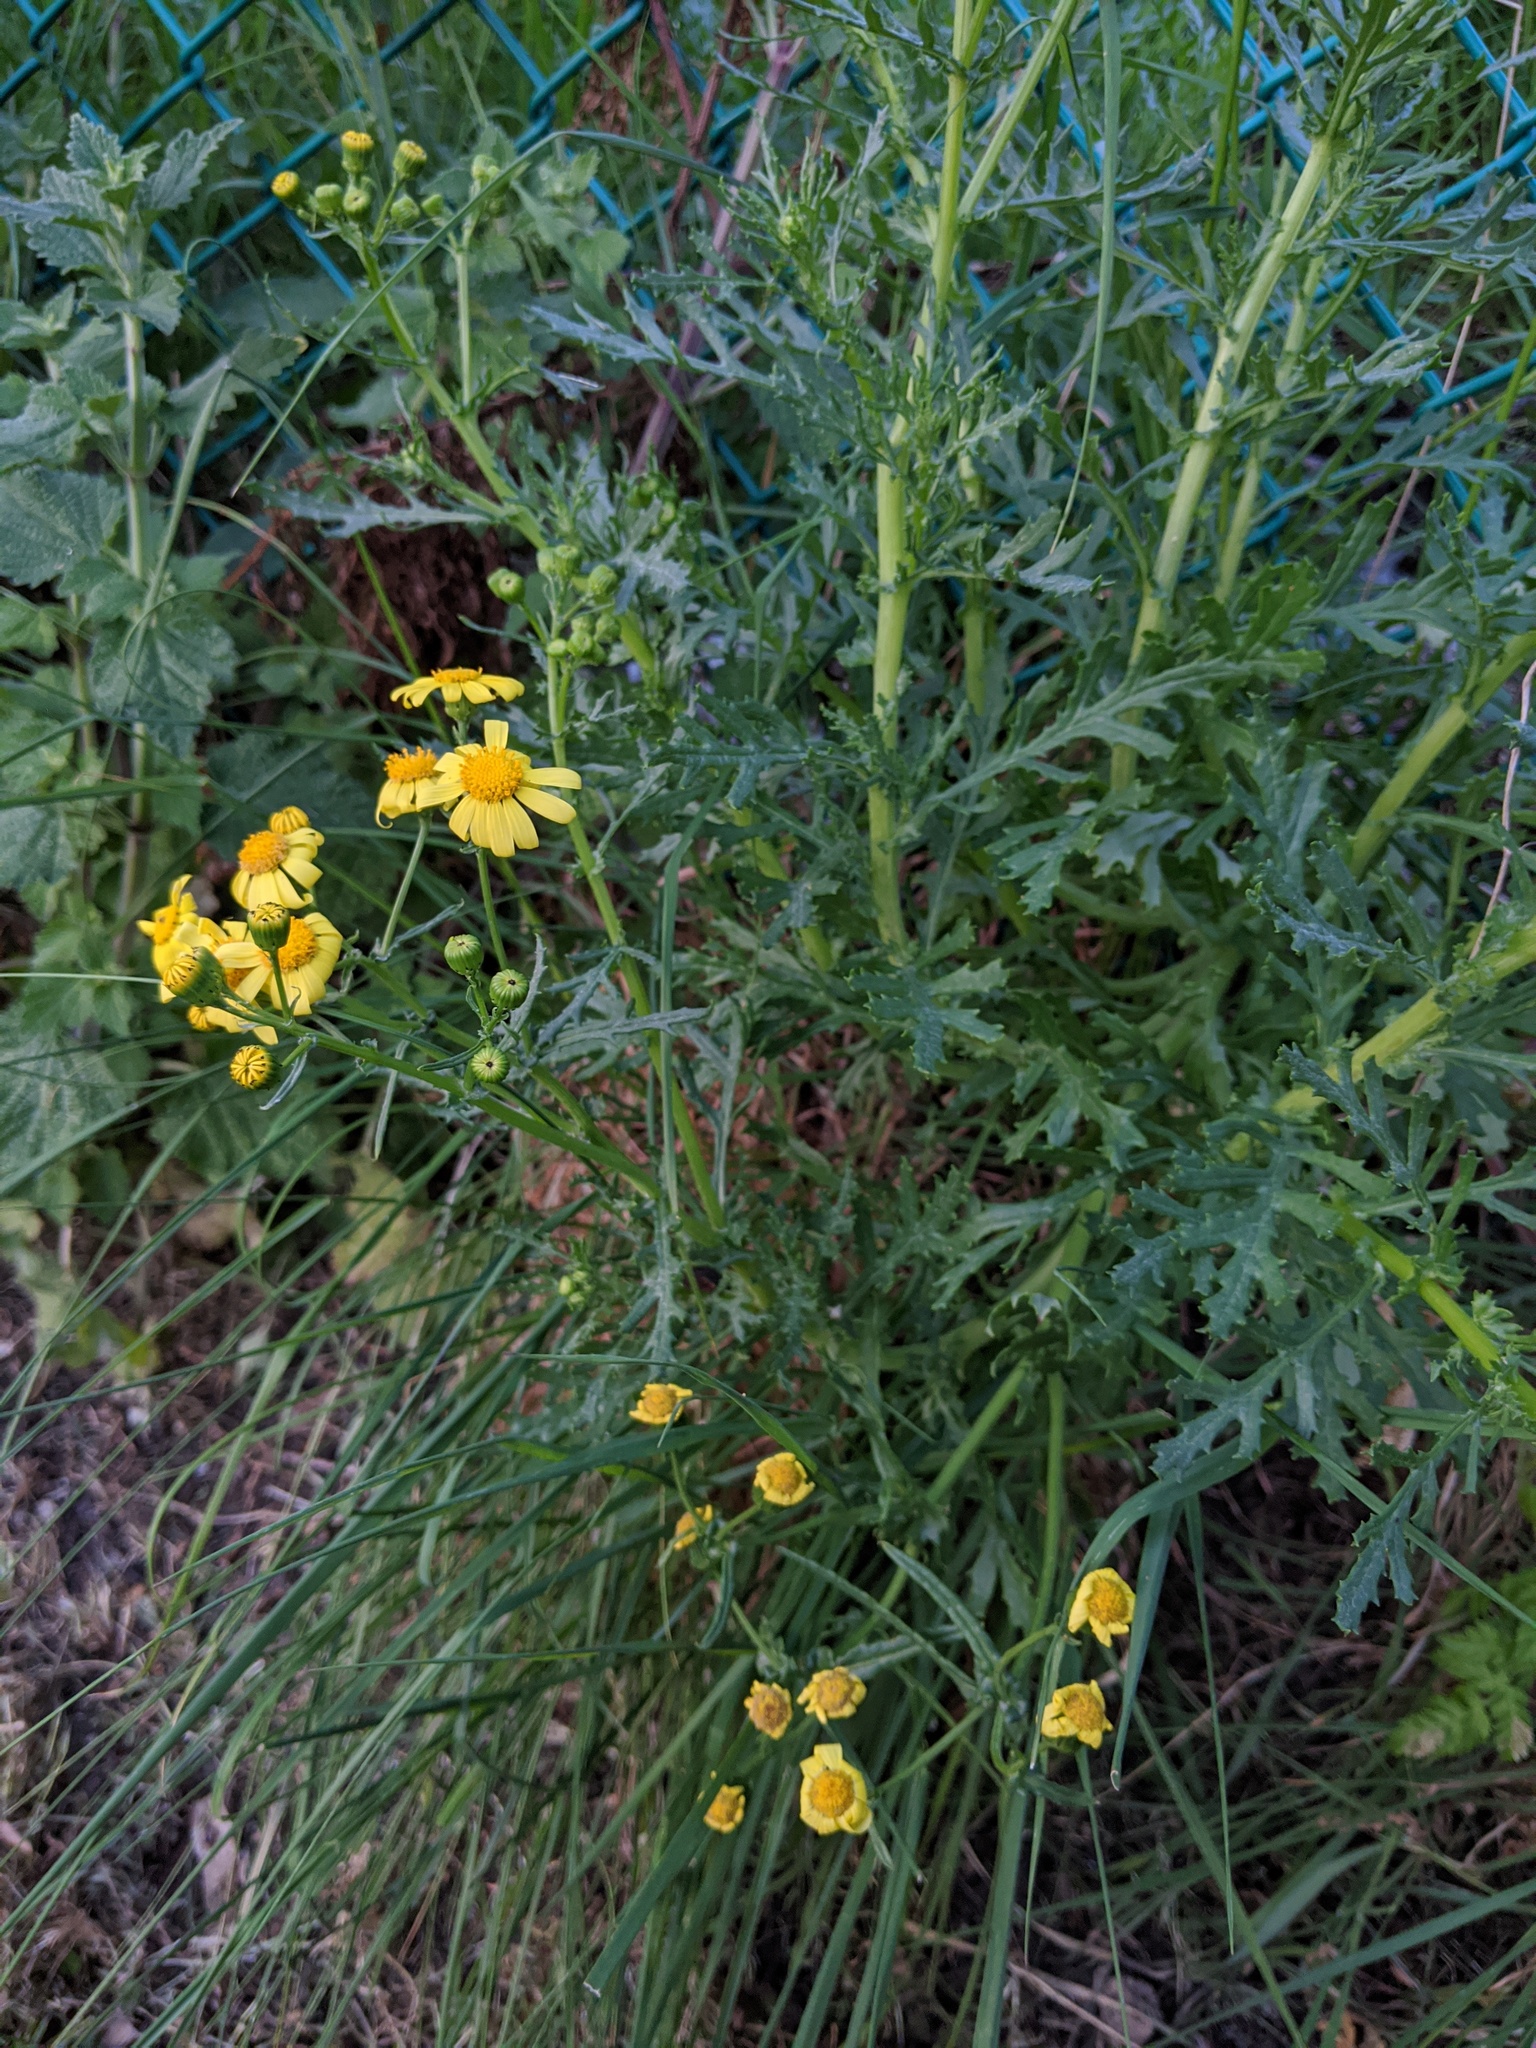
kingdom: Plantae
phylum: Tracheophyta
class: Magnoliopsida
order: Asterales
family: Asteraceae
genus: Senecio
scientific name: Senecio squalidus
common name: Oxford ragwort
